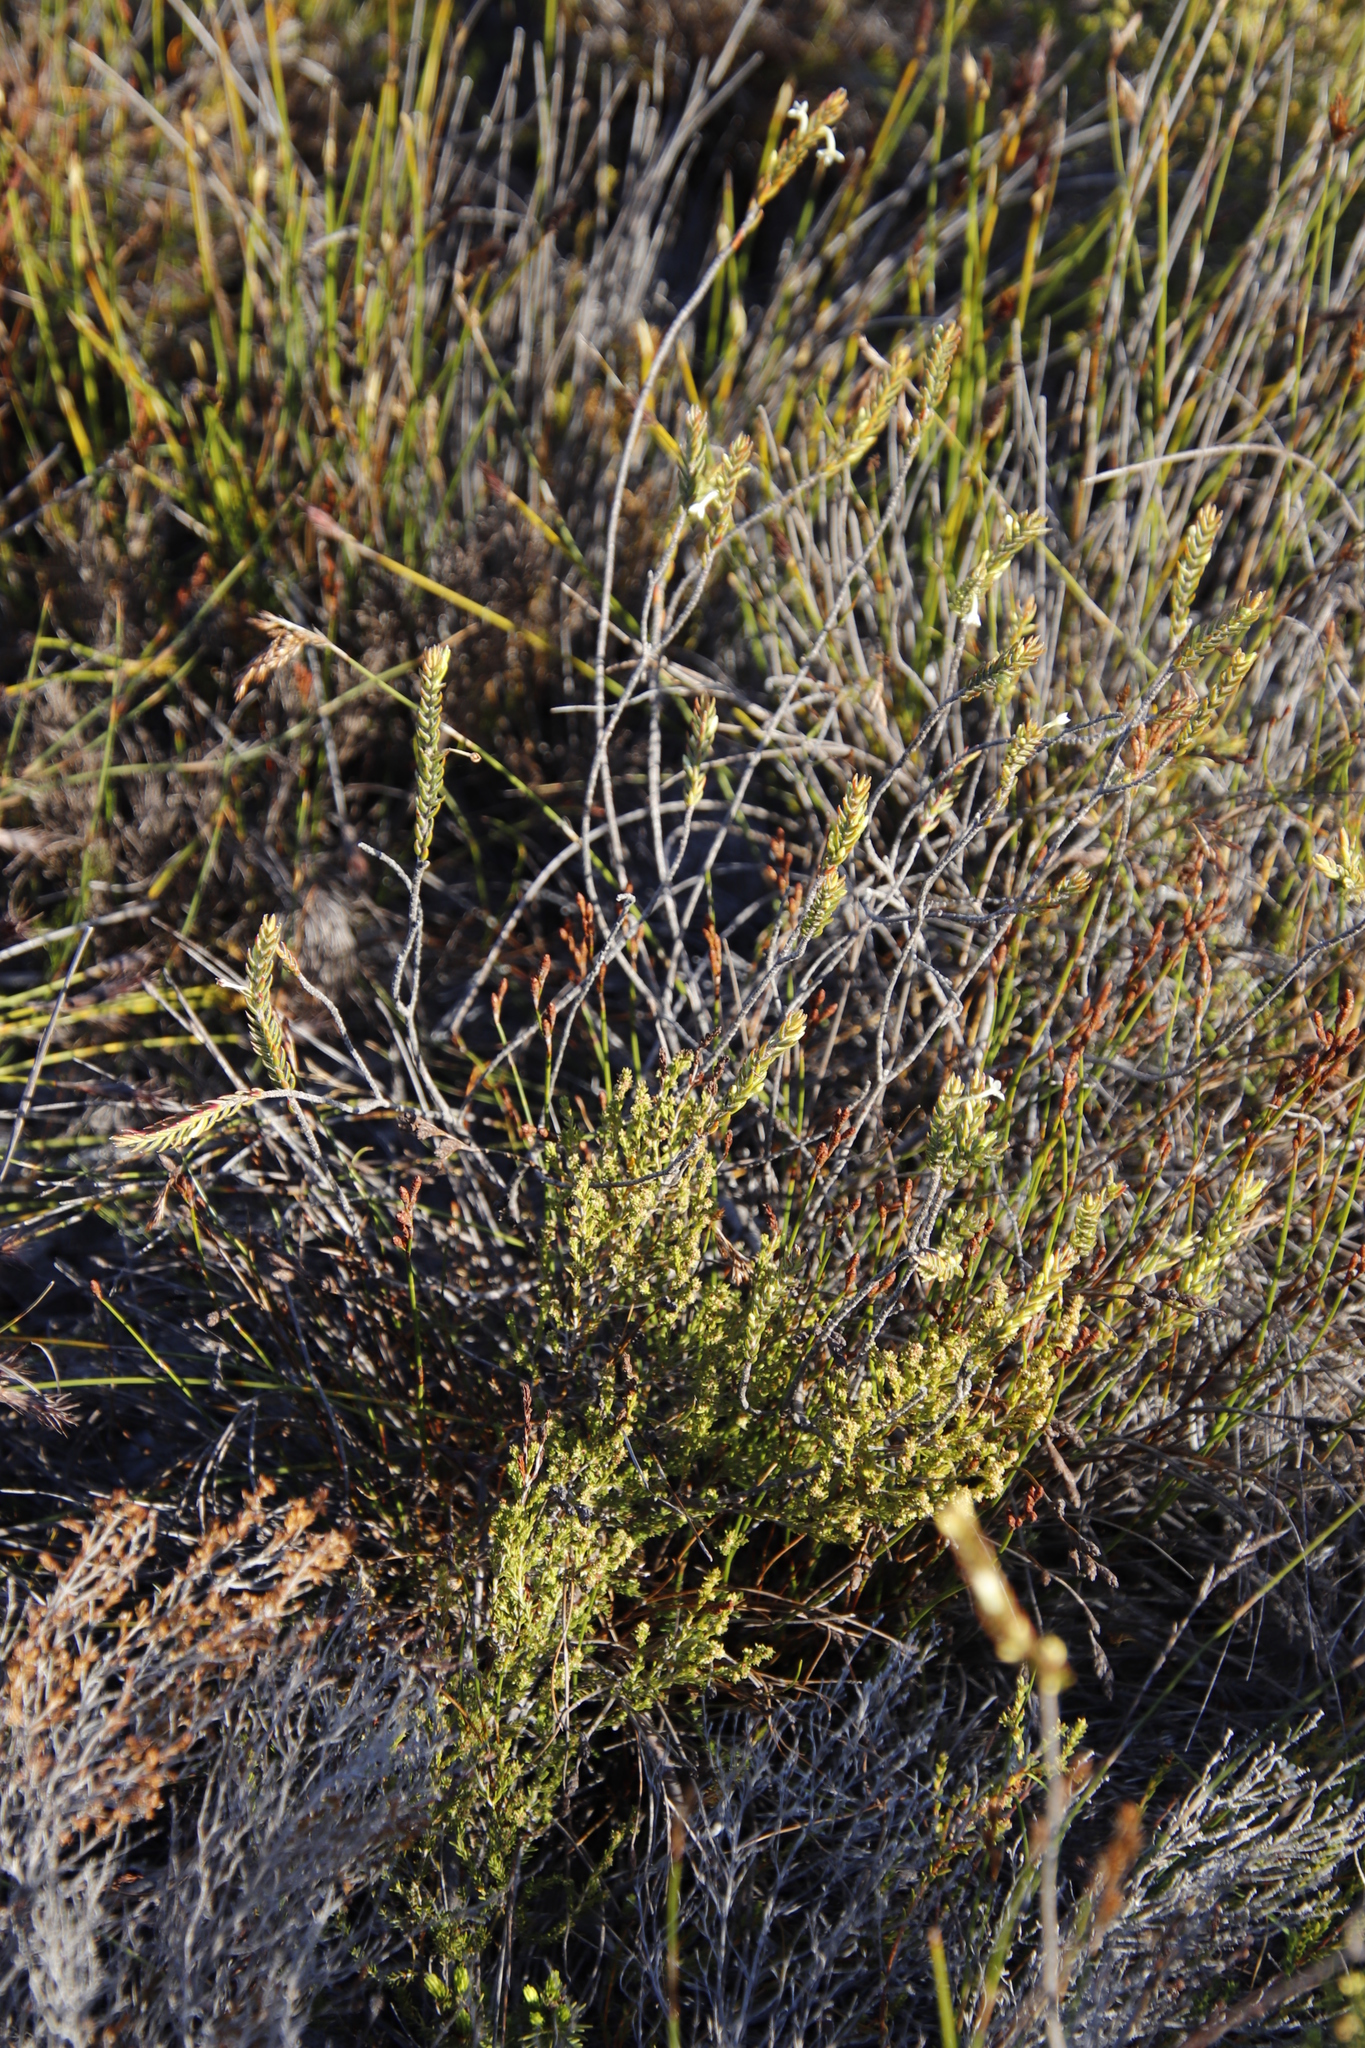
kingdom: Plantae
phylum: Tracheophyta
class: Magnoliopsida
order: Malvales
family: Thymelaeaceae
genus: Struthiola
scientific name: Struthiola ciliata
